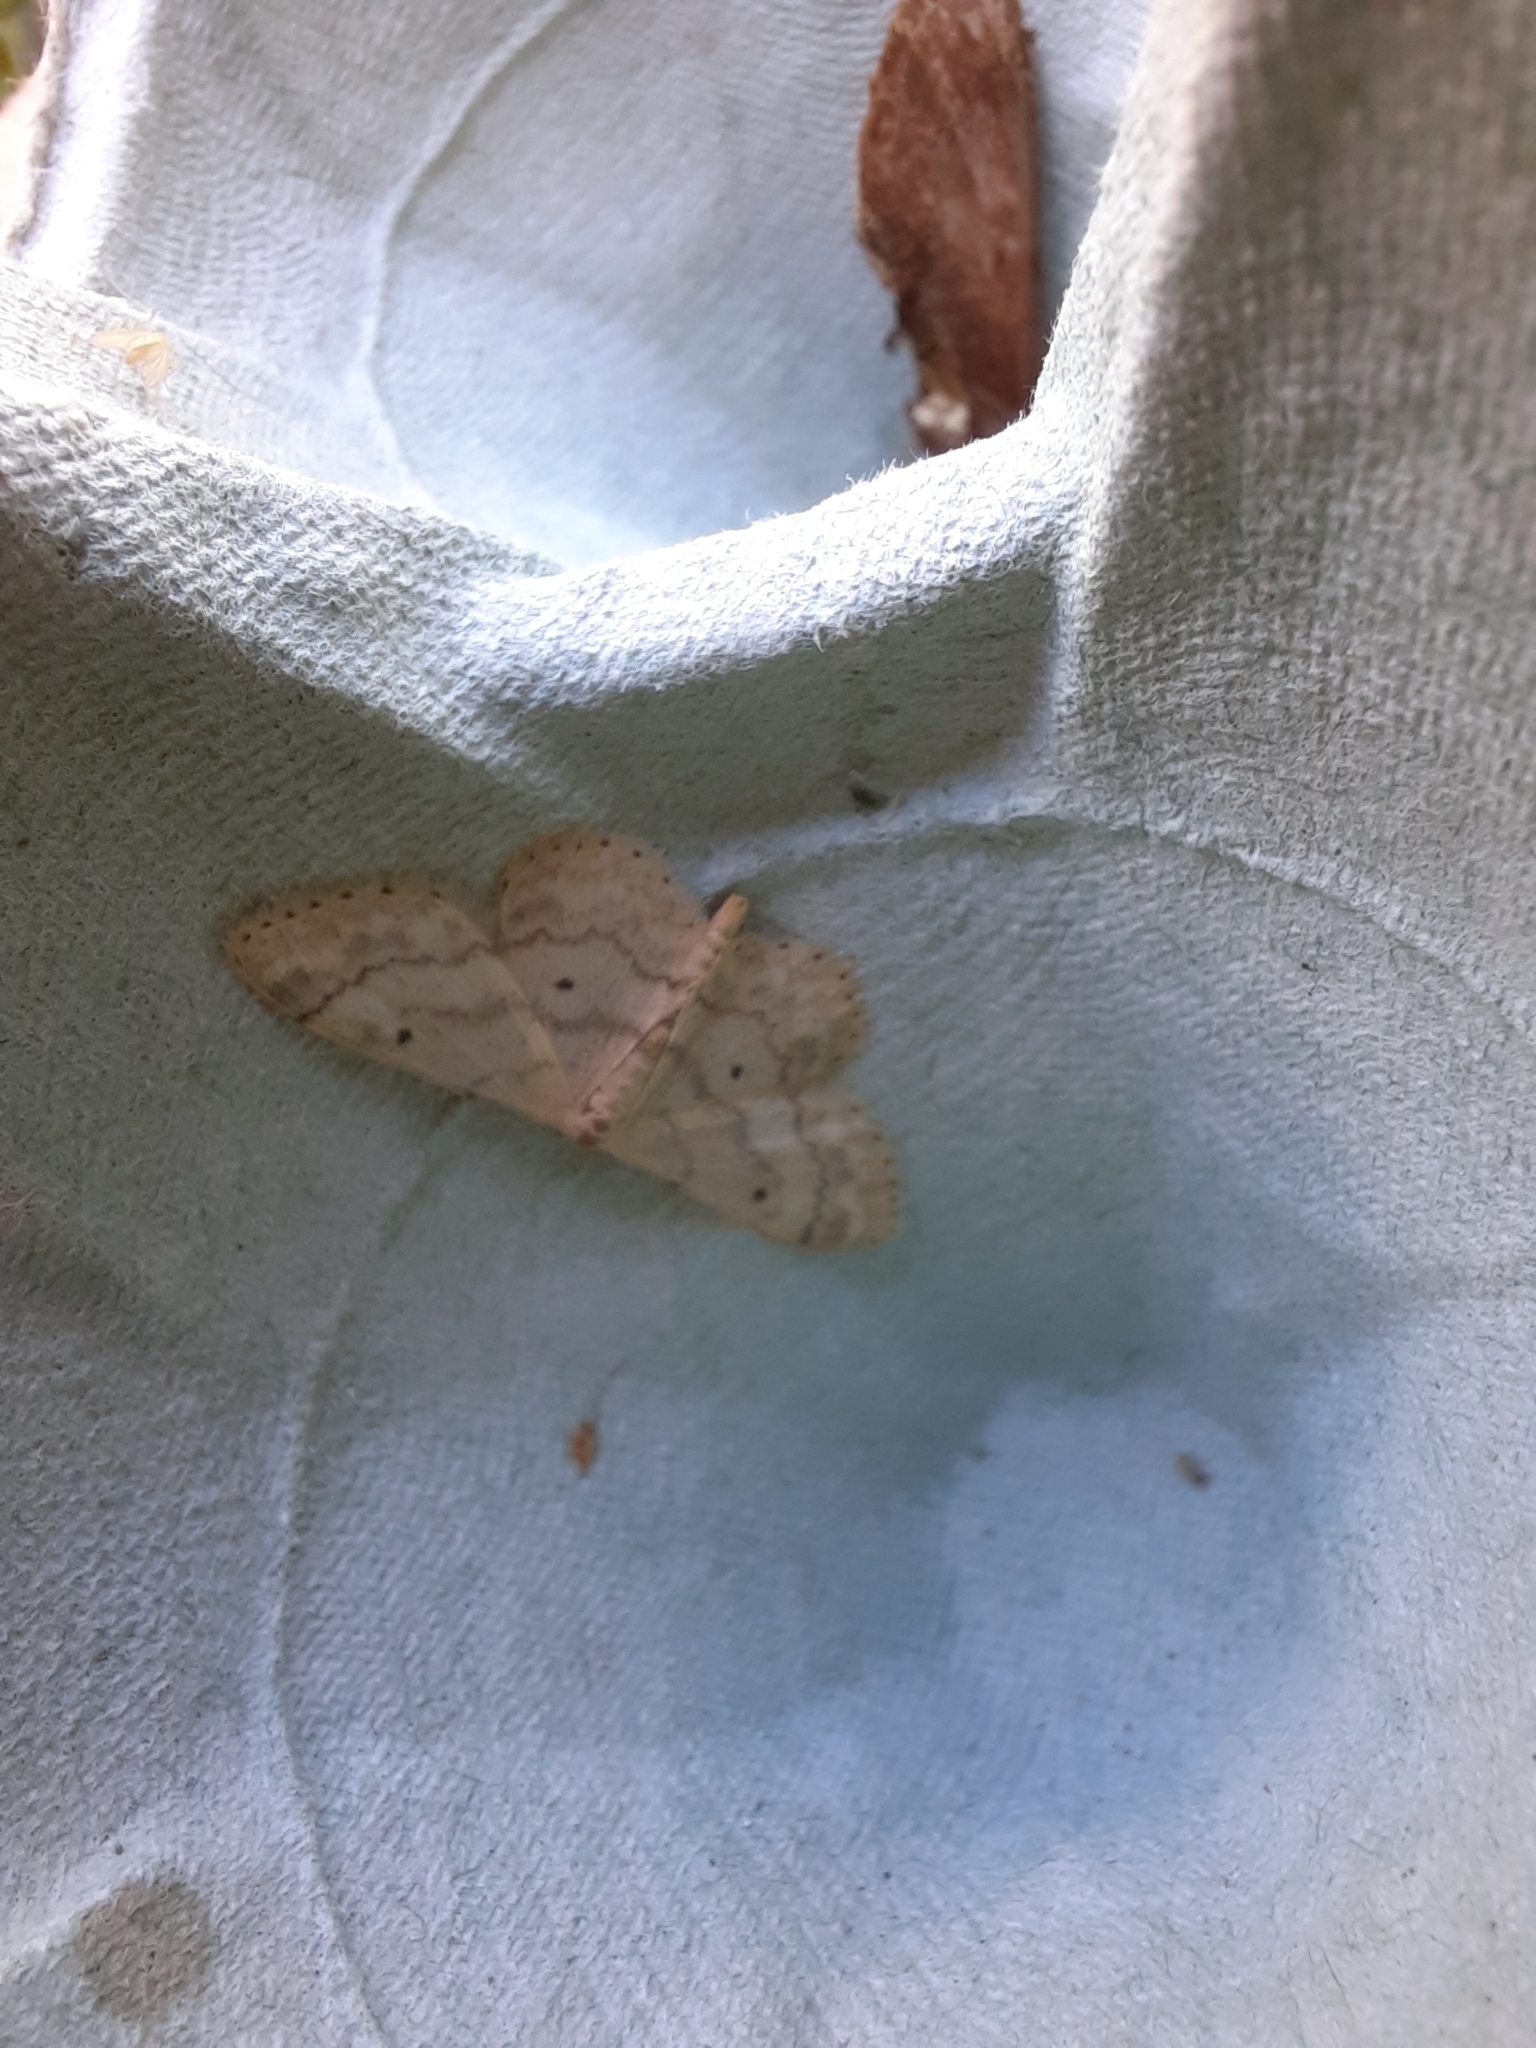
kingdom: Animalia
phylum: Arthropoda
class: Insecta
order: Lepidoptera
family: Geometridae
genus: Idaea
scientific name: Idaea biselata
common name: Small fan-footed wave
